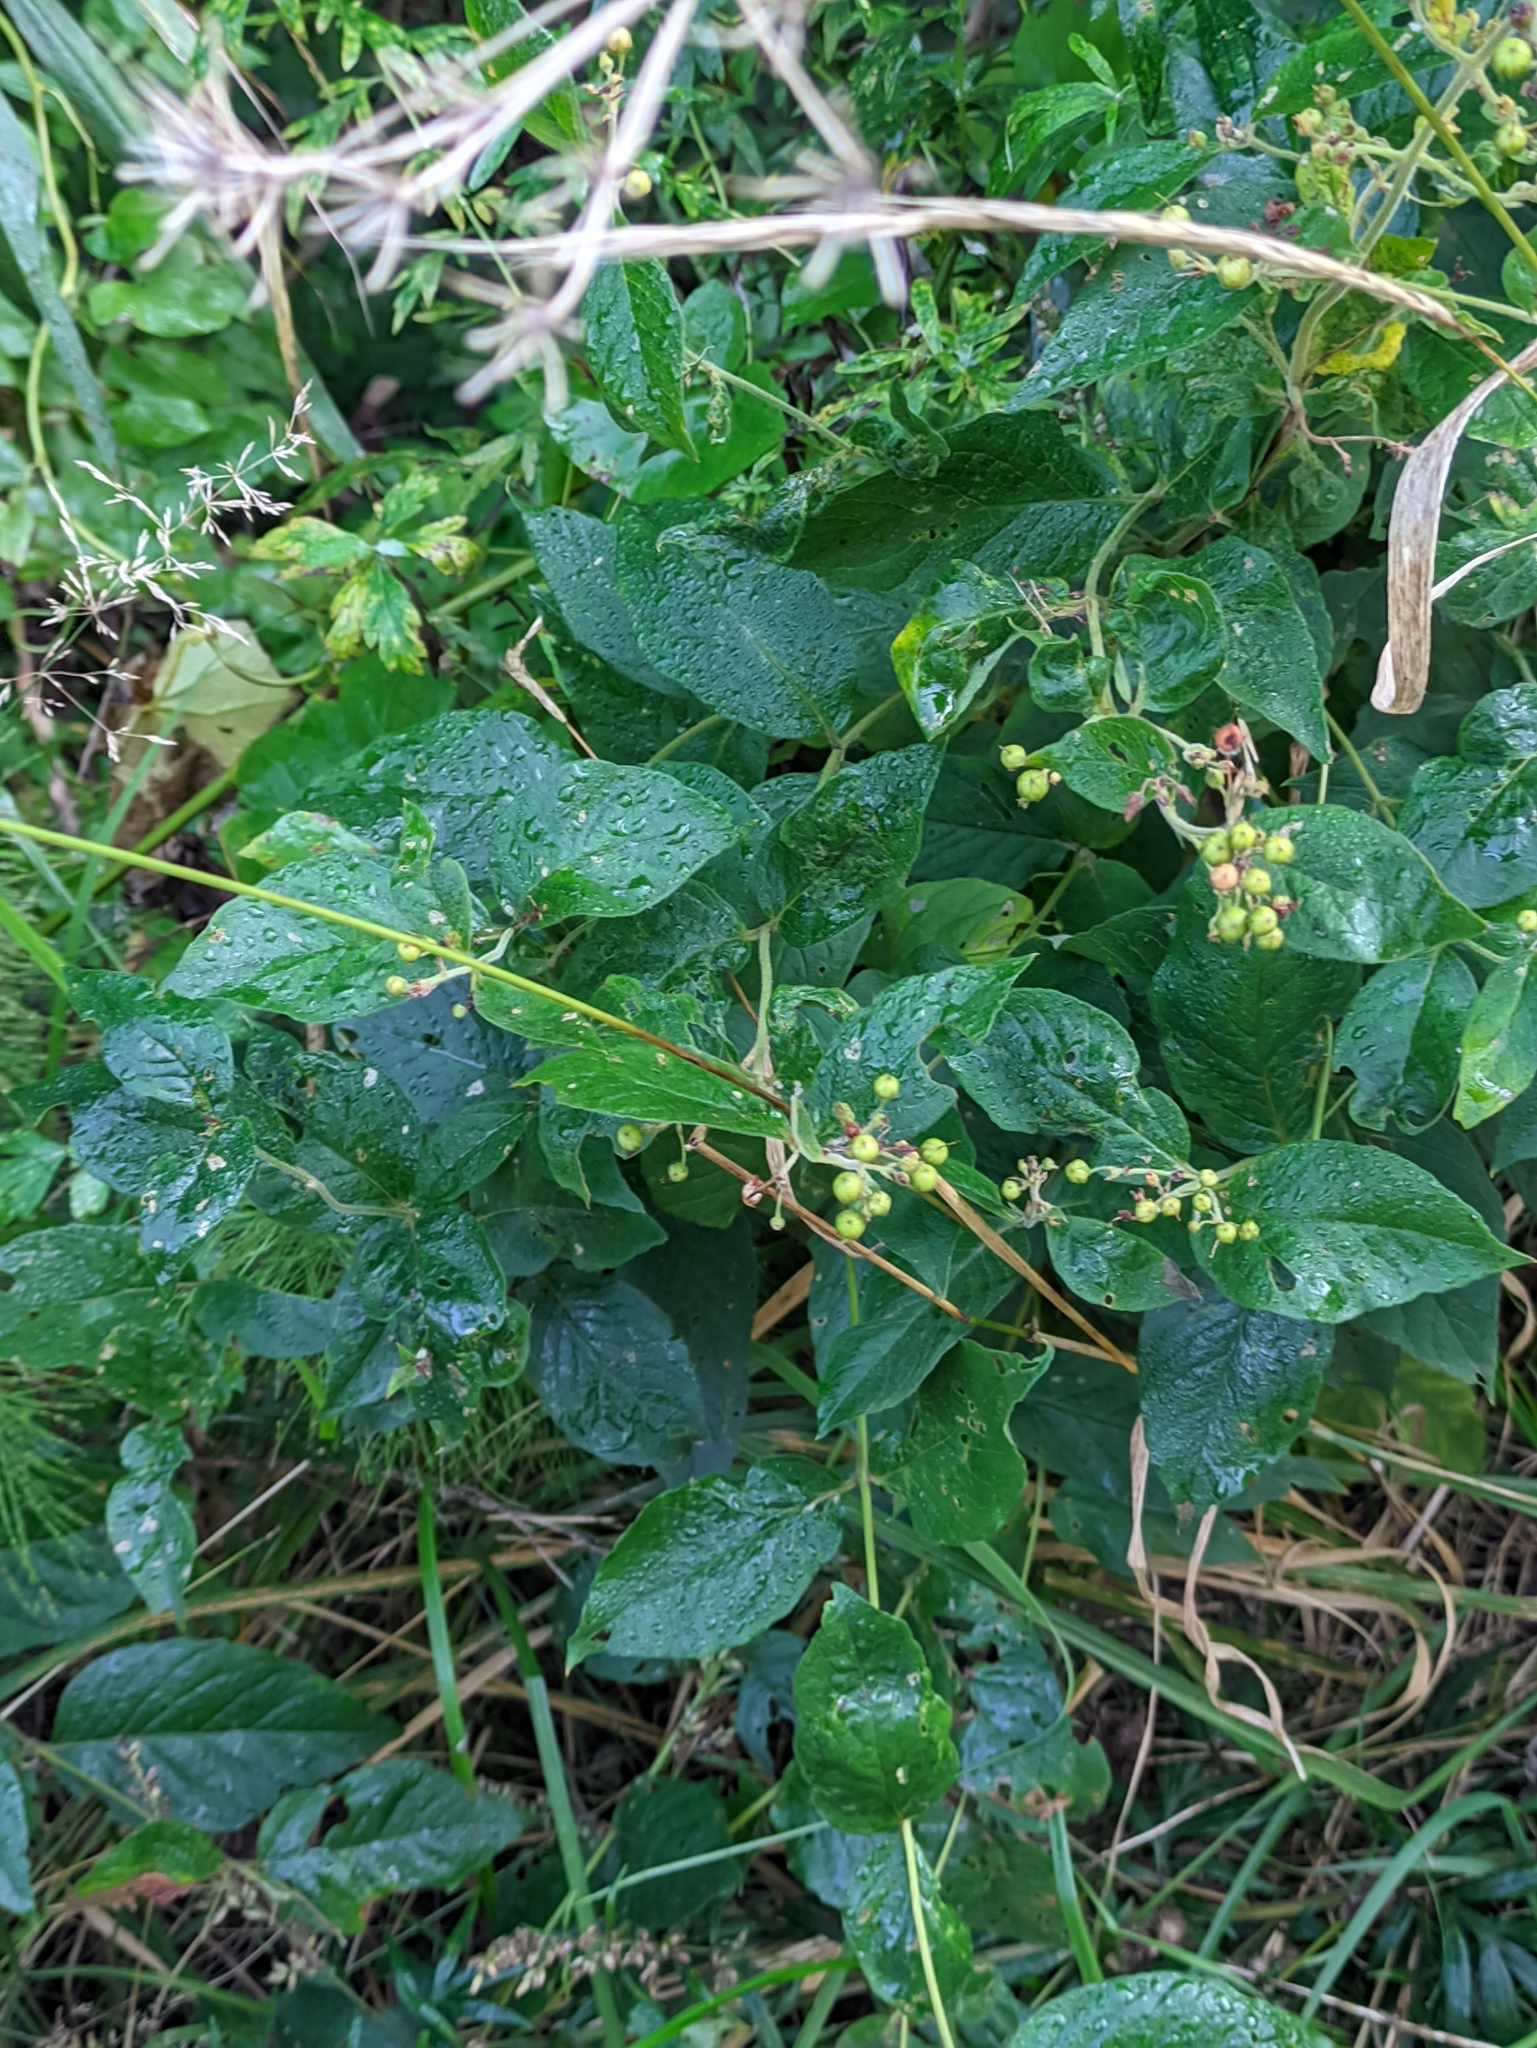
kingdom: Plantae
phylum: Tracheophyta
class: Magnoliopsida
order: Ericales
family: Primulaceae
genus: Lysimachia
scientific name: Lysimachia vulgaris
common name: Yellow loosestrife
